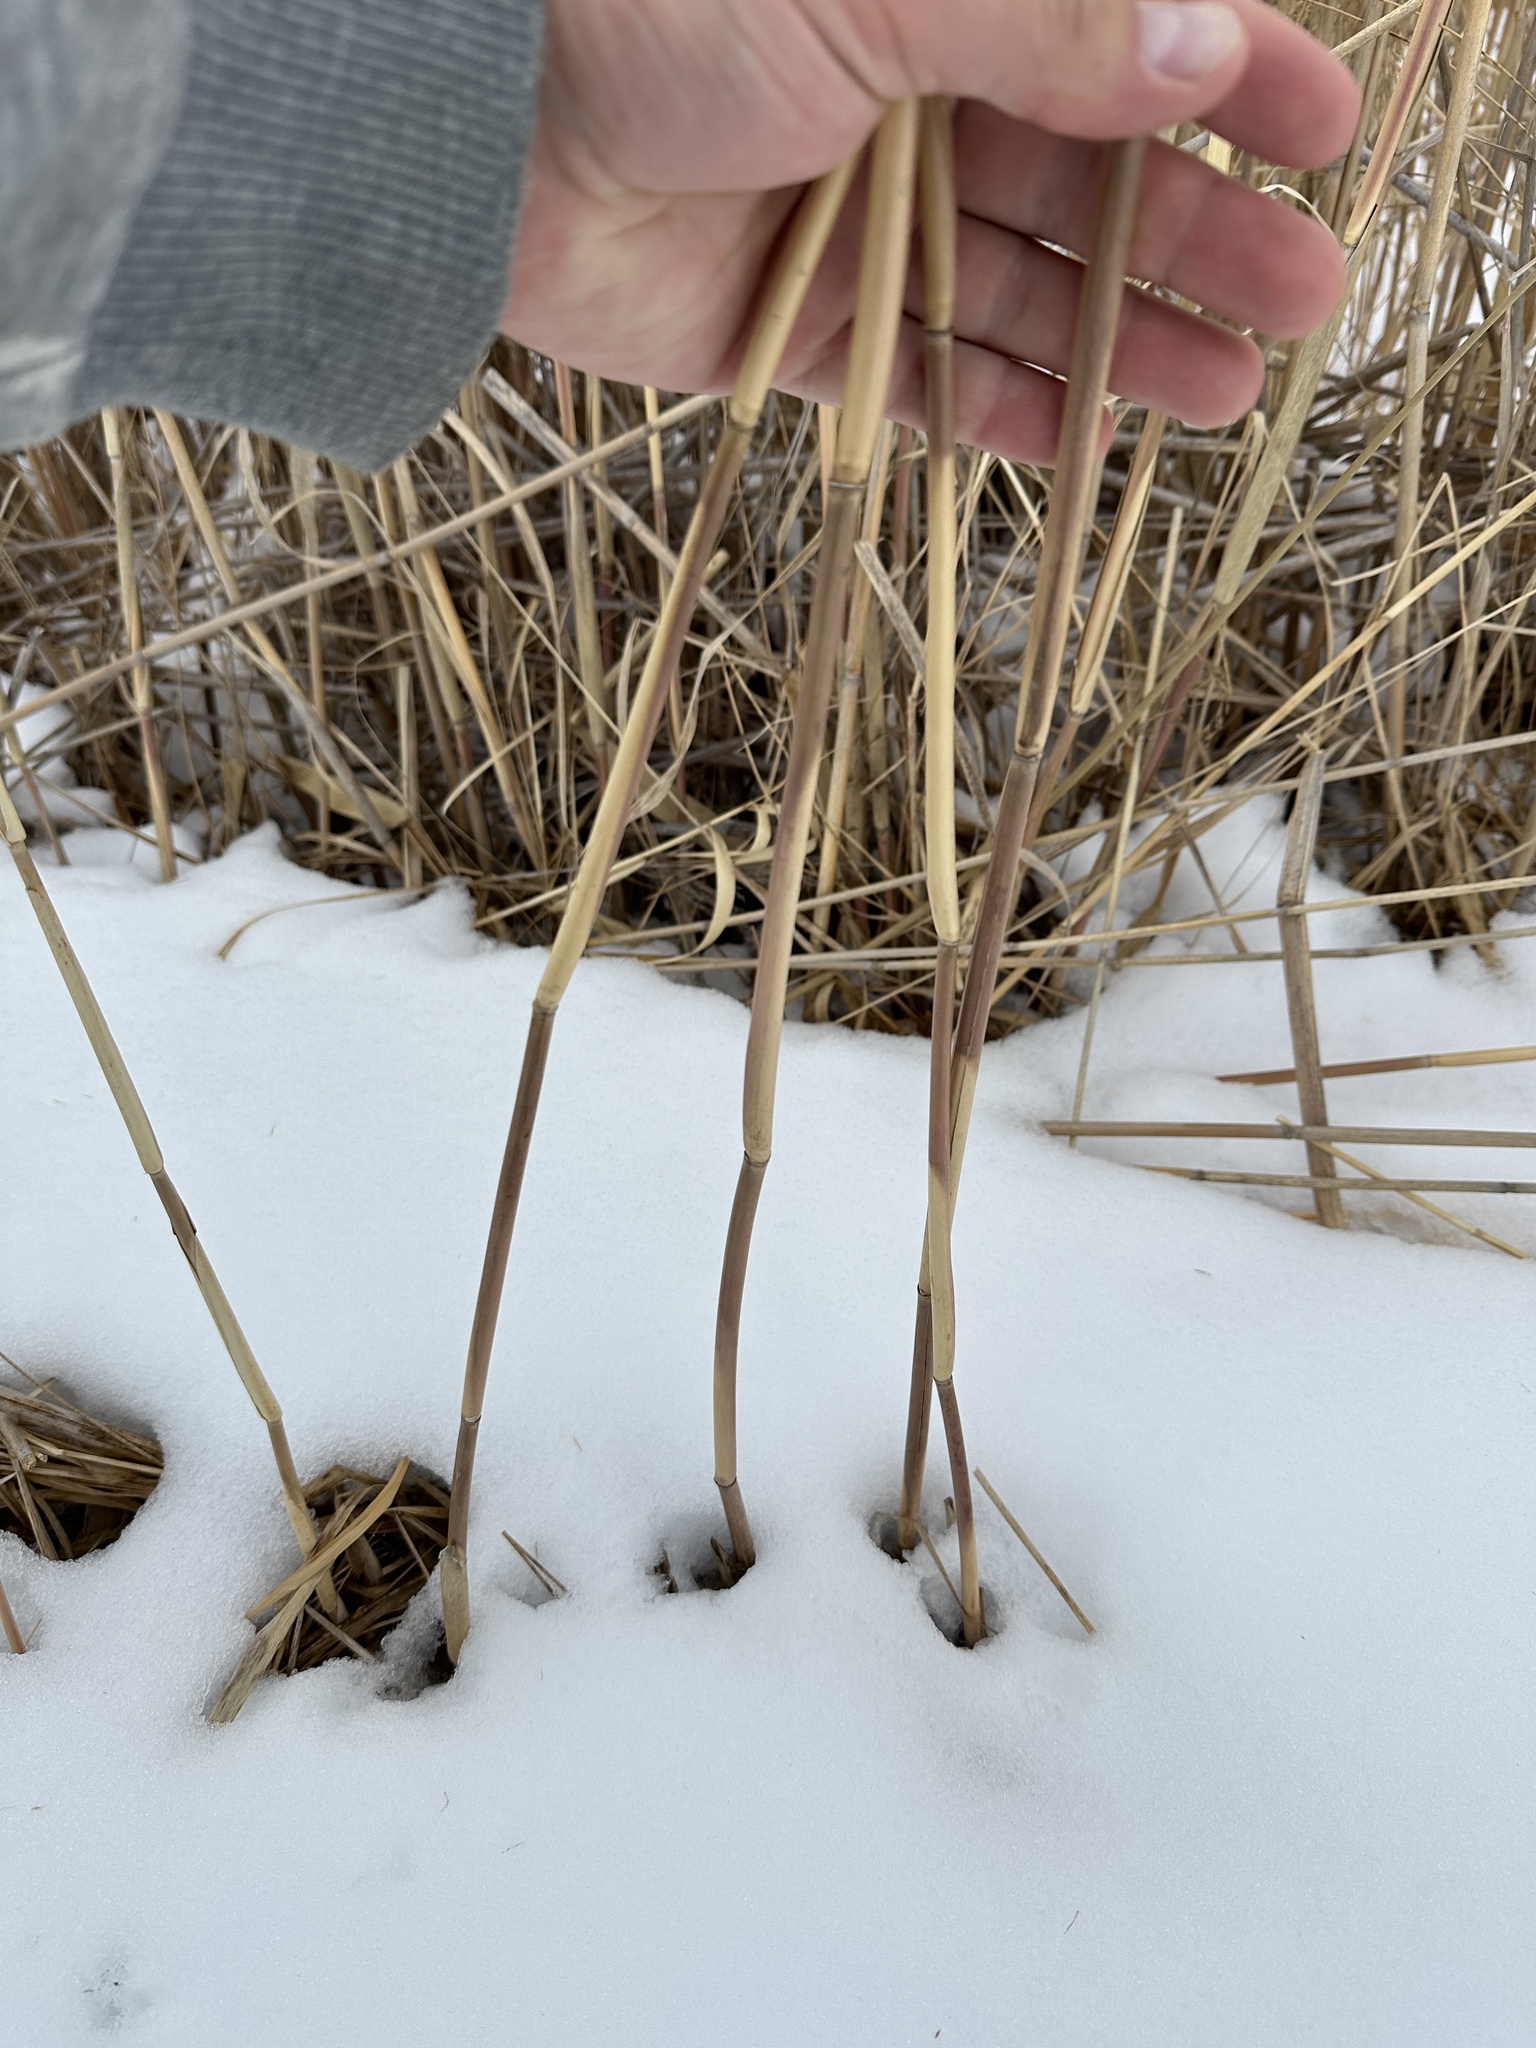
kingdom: Plantae
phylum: Tracheophyta
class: Liliopsida
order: Poales
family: Poaceae
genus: Phragmites
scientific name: Phragmites australis
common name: Common reed
